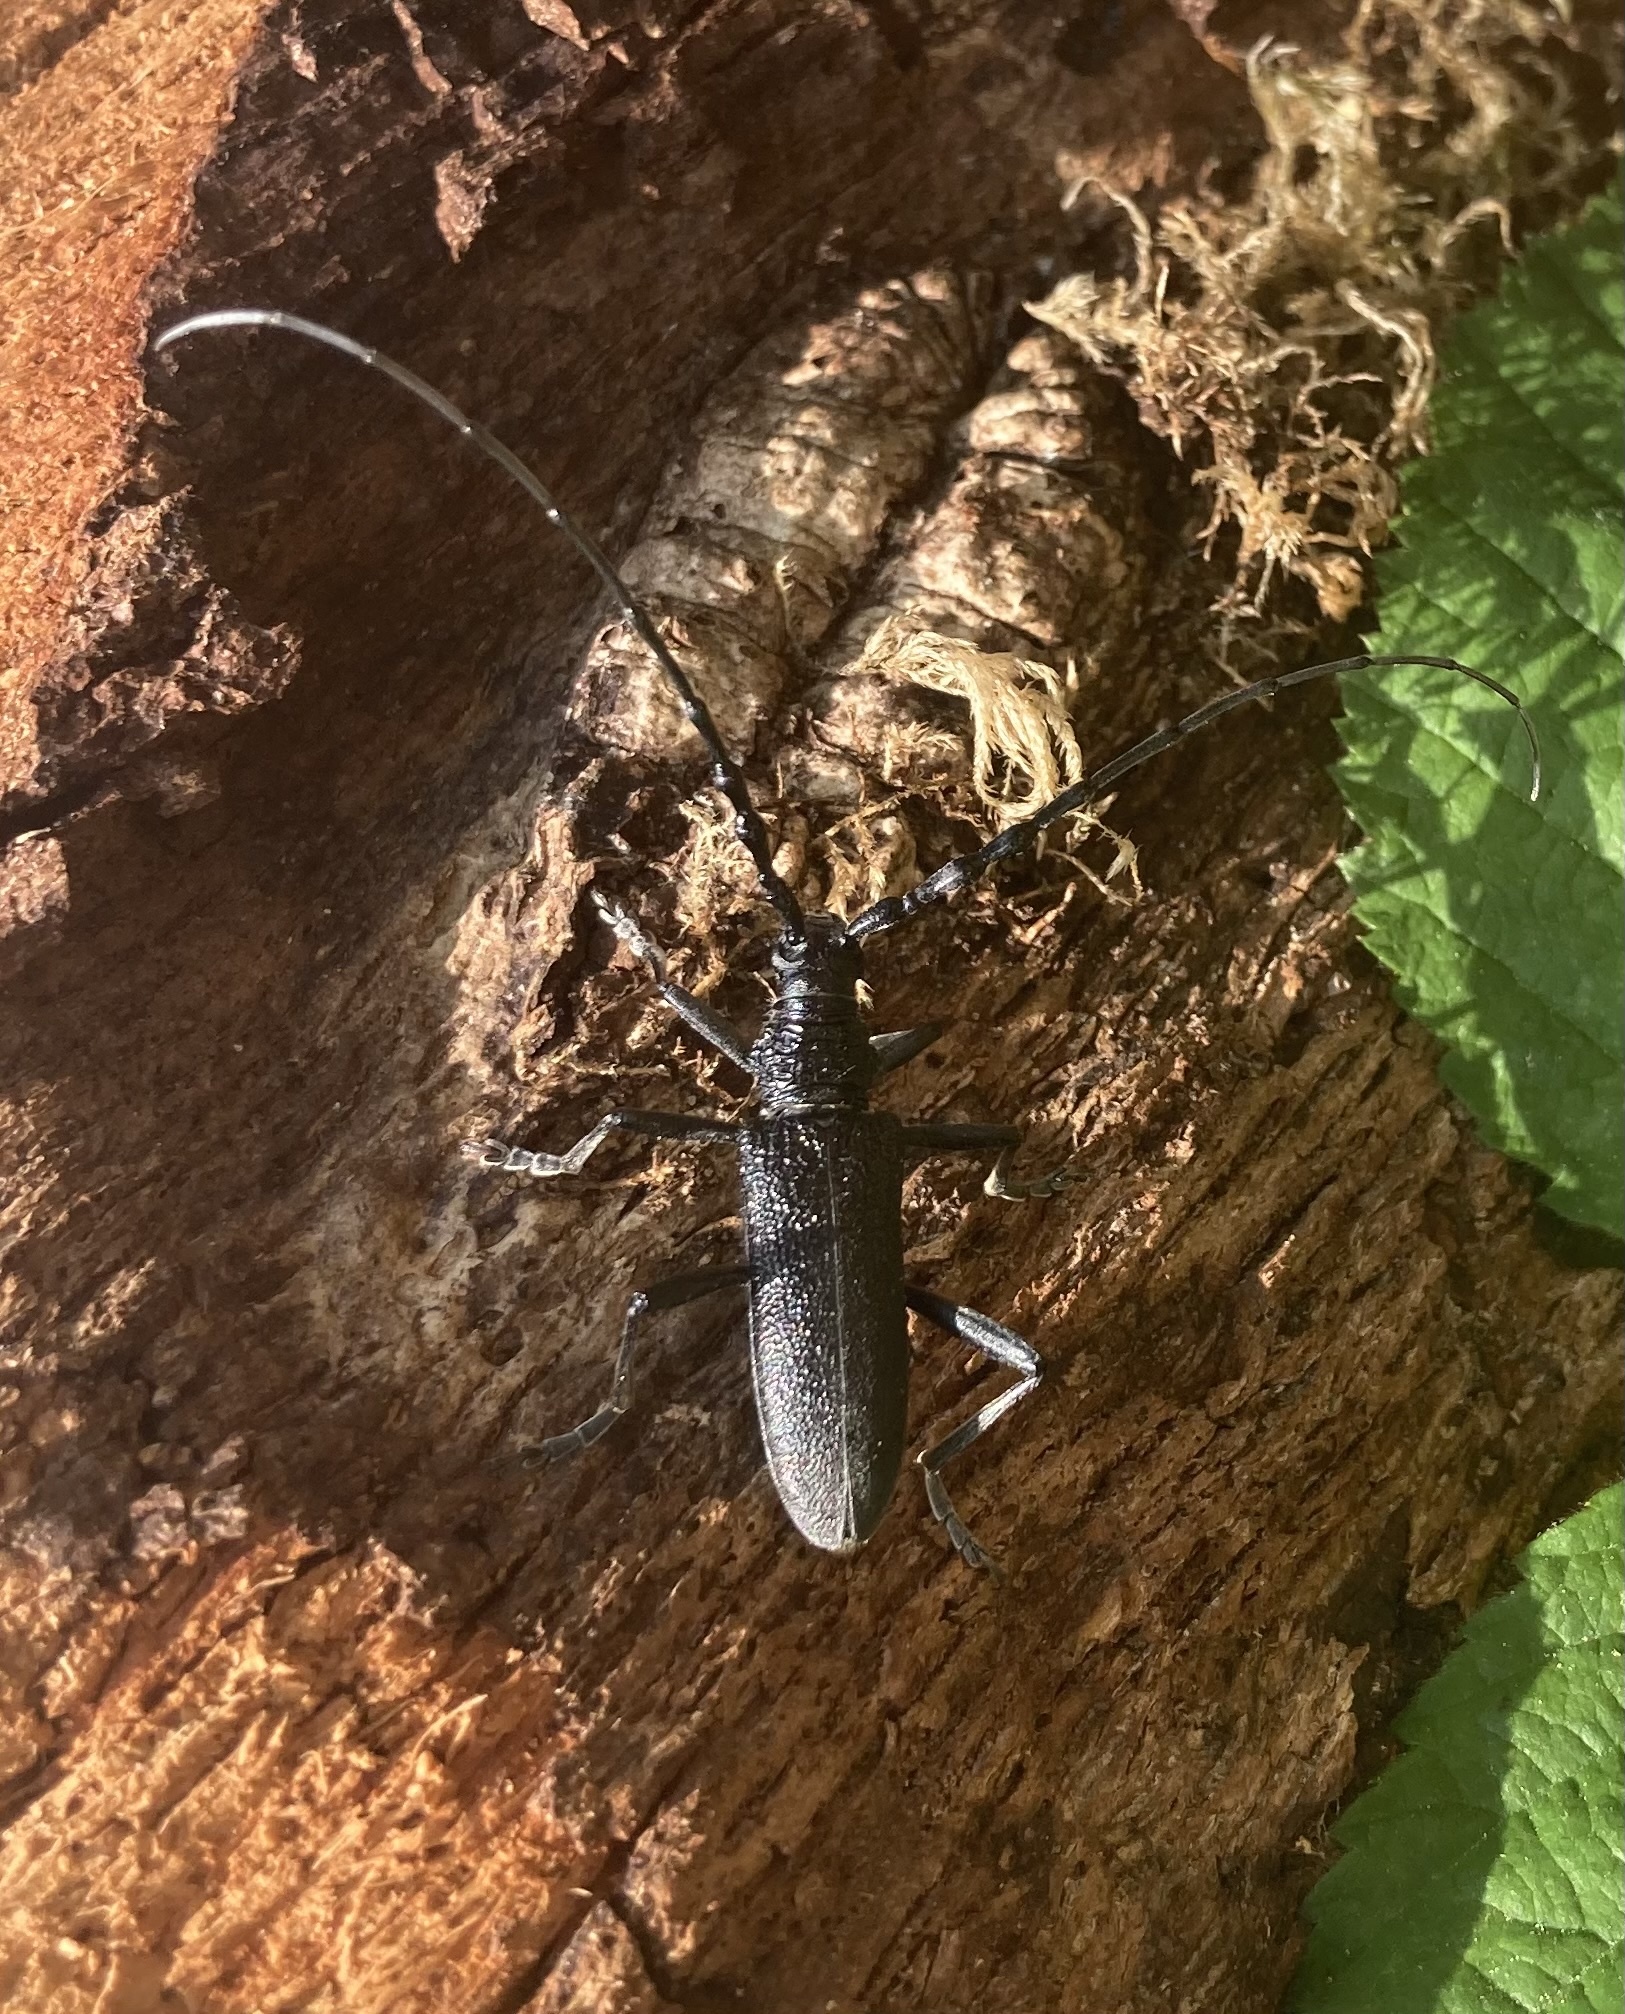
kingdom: Animalia
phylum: Arthropoda
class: Insecta
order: Coleoptera
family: Cerambycidae
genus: Cerambyx
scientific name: Cerambyx scopolii
